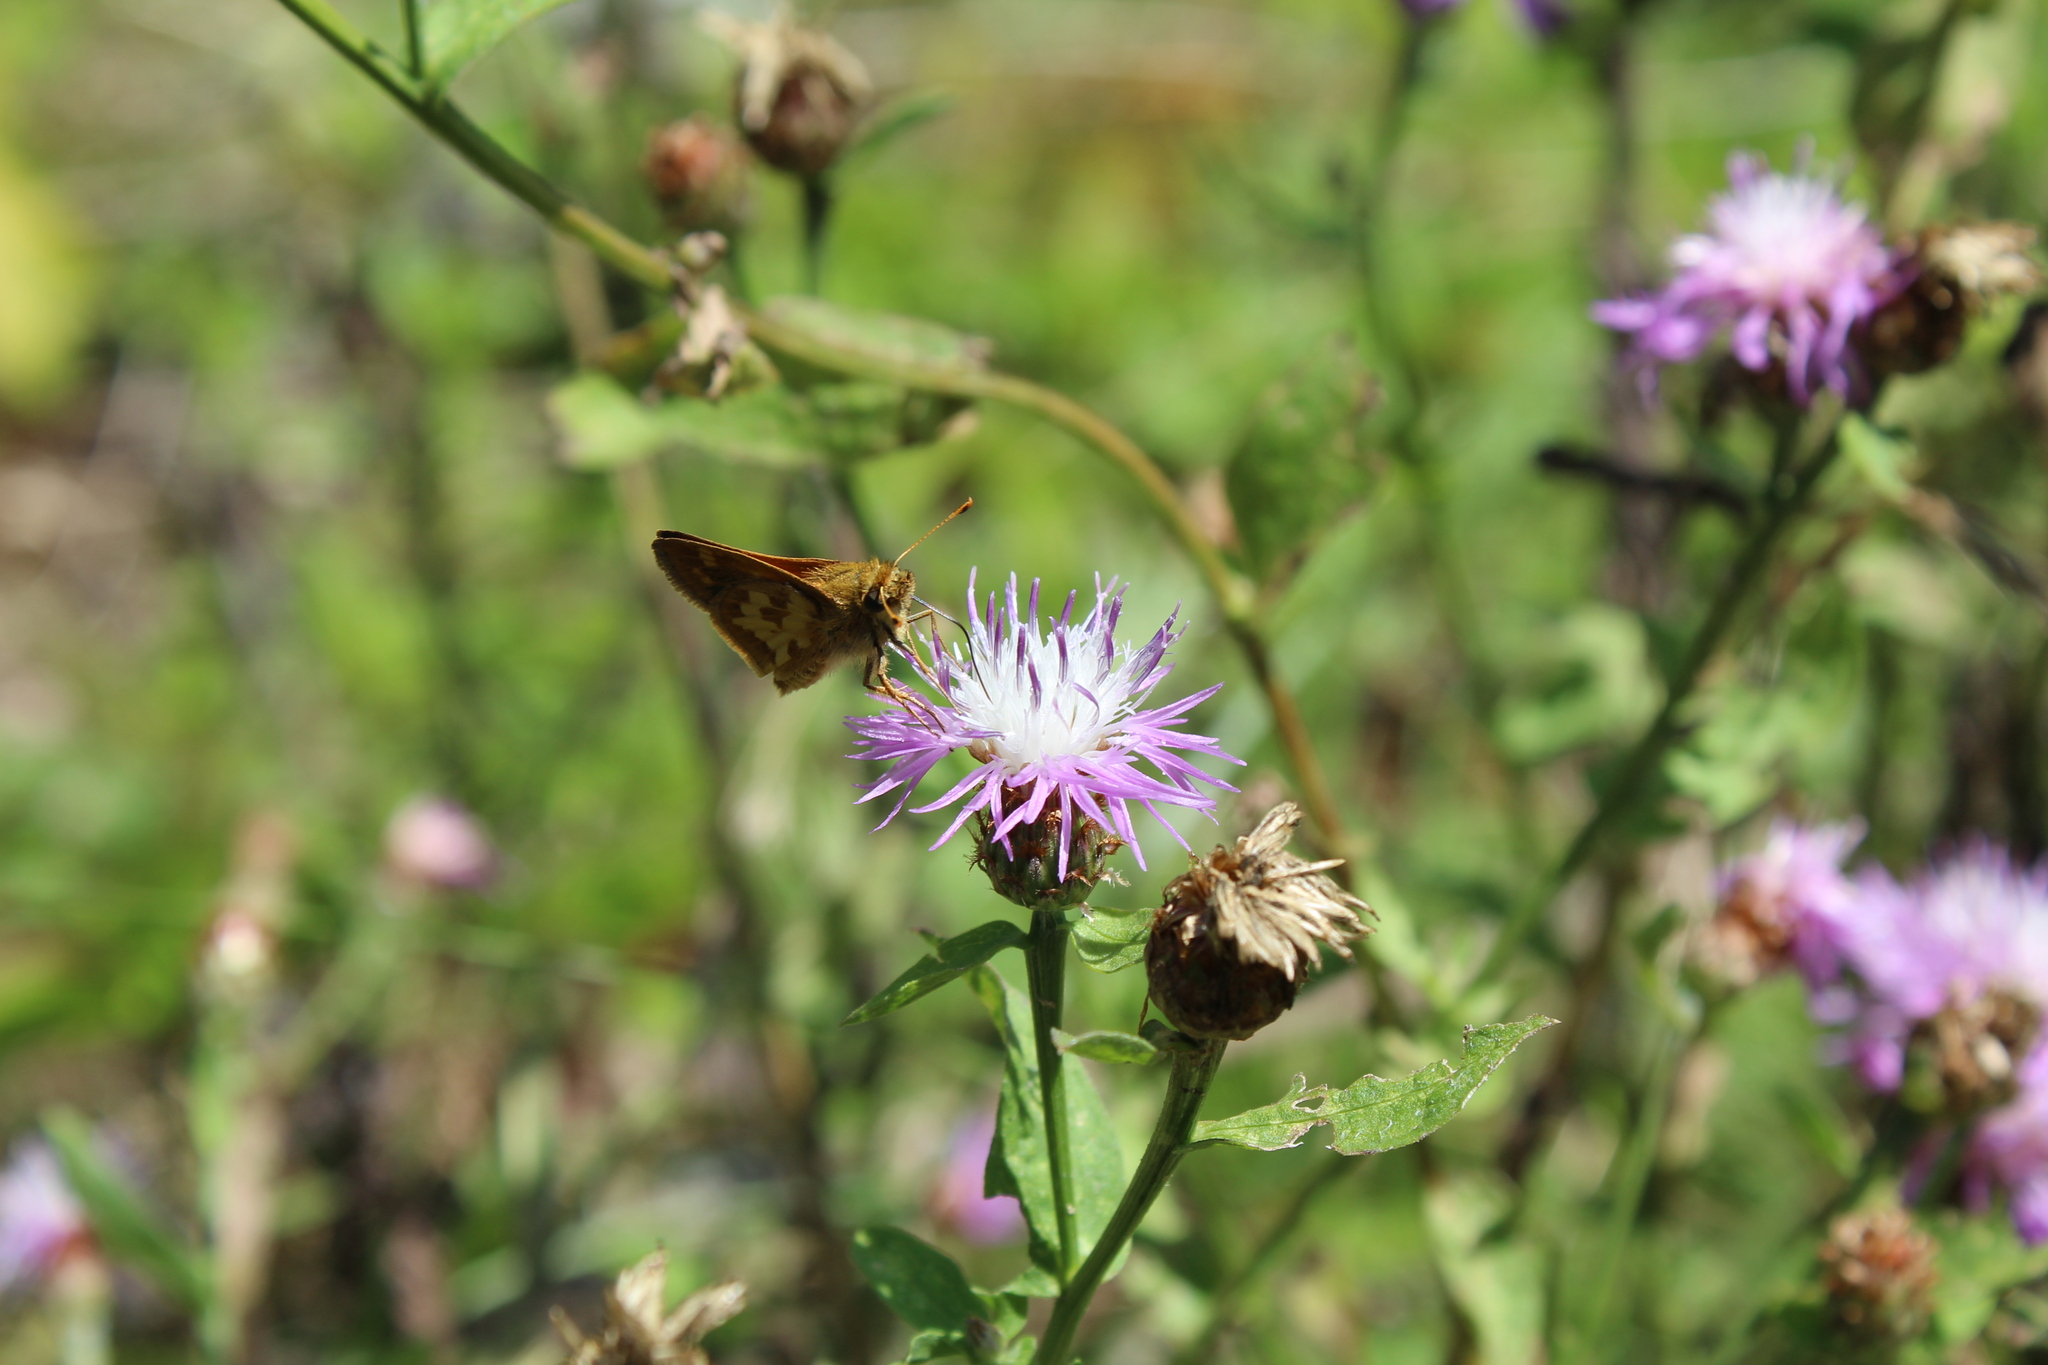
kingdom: Animalia
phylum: Arthropoda
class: Insecta
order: Lepidoptera
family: Hesperiidae
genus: Polites
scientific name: Polites coras
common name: Peck's skipper
